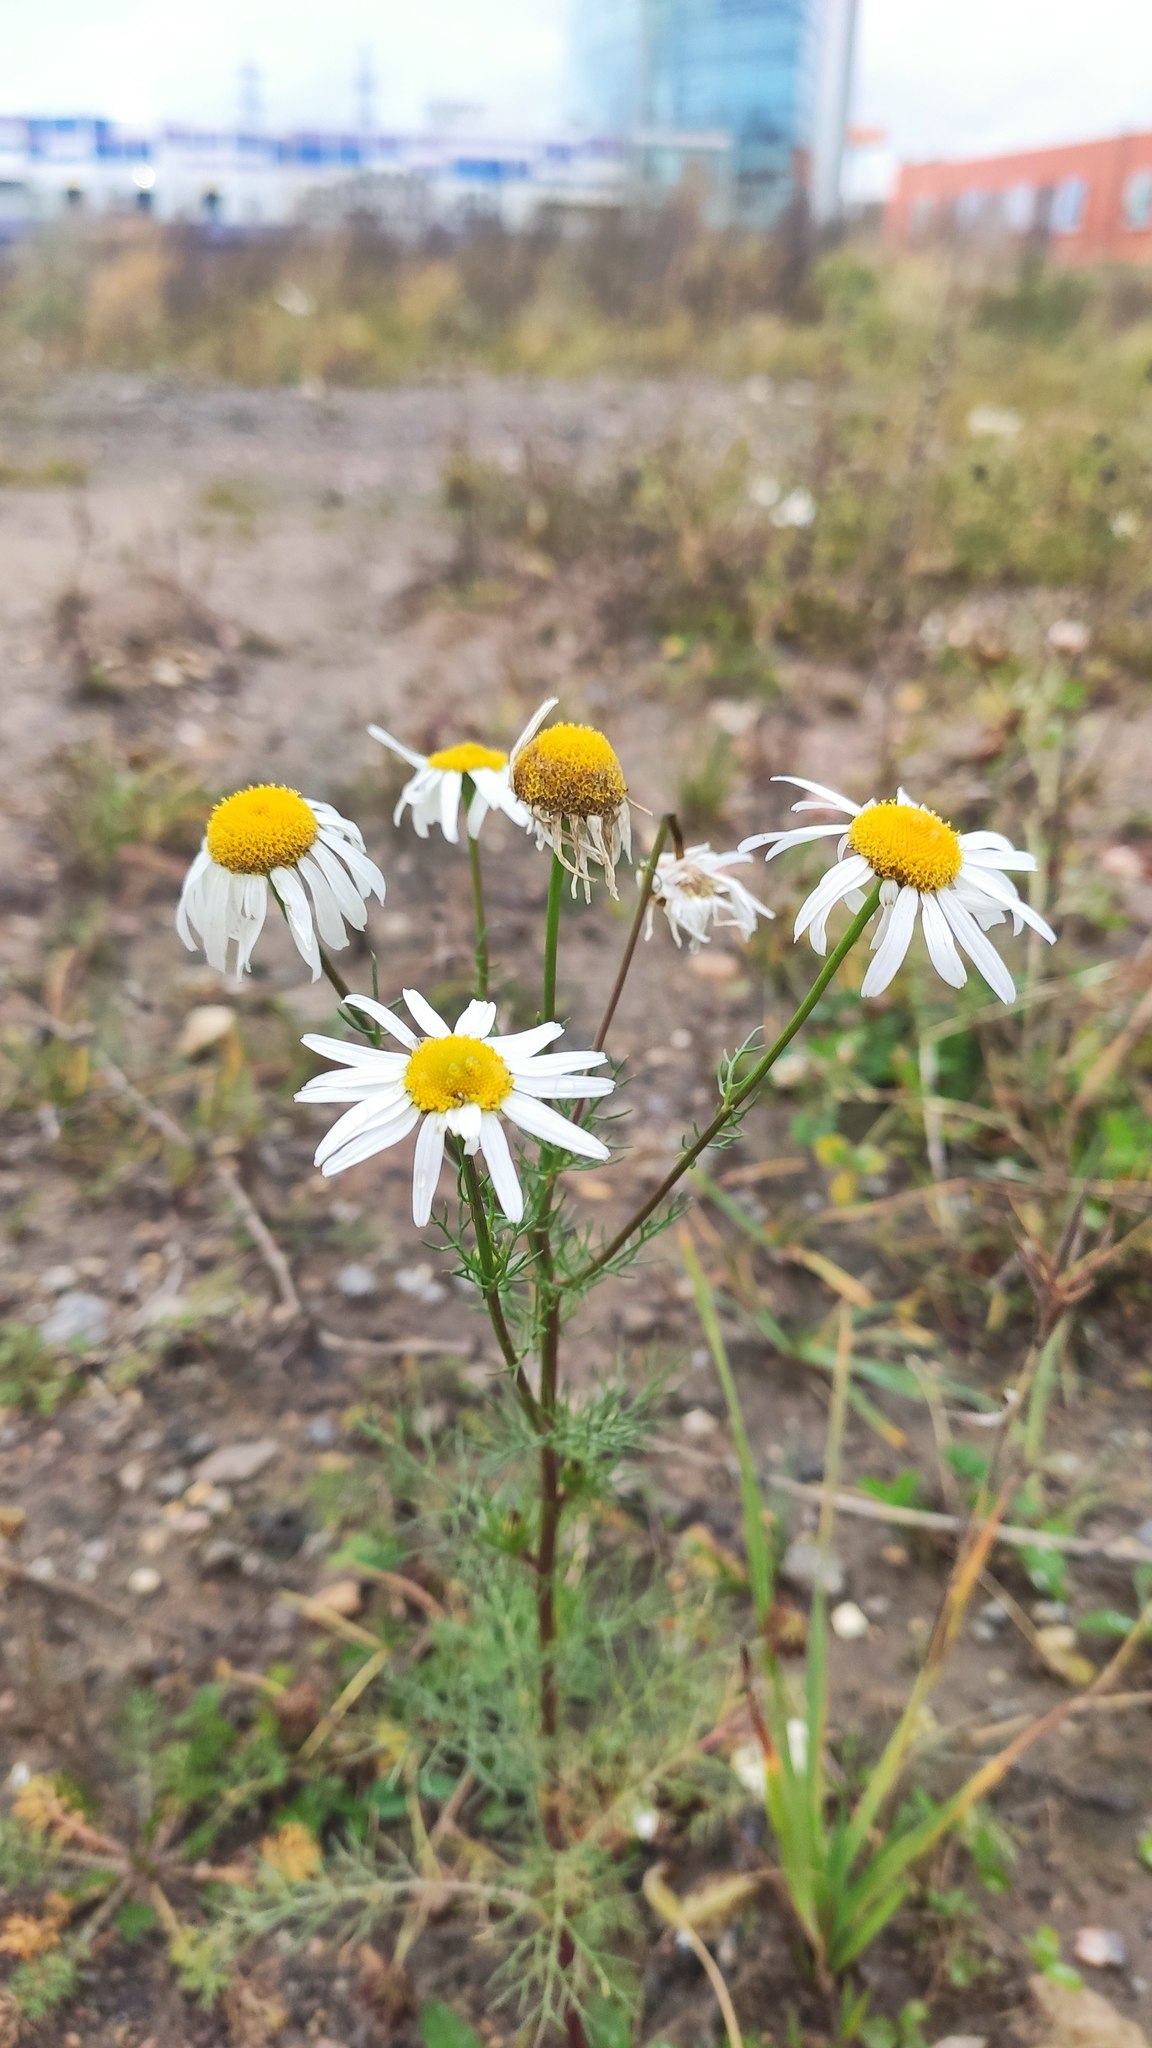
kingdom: Plantae
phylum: Tracheophyta
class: Magnoliopsida
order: Asterales
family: Asteraceae
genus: Tripleurospermum
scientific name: Tripleurospermum inodorum
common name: Scentless mayweed
